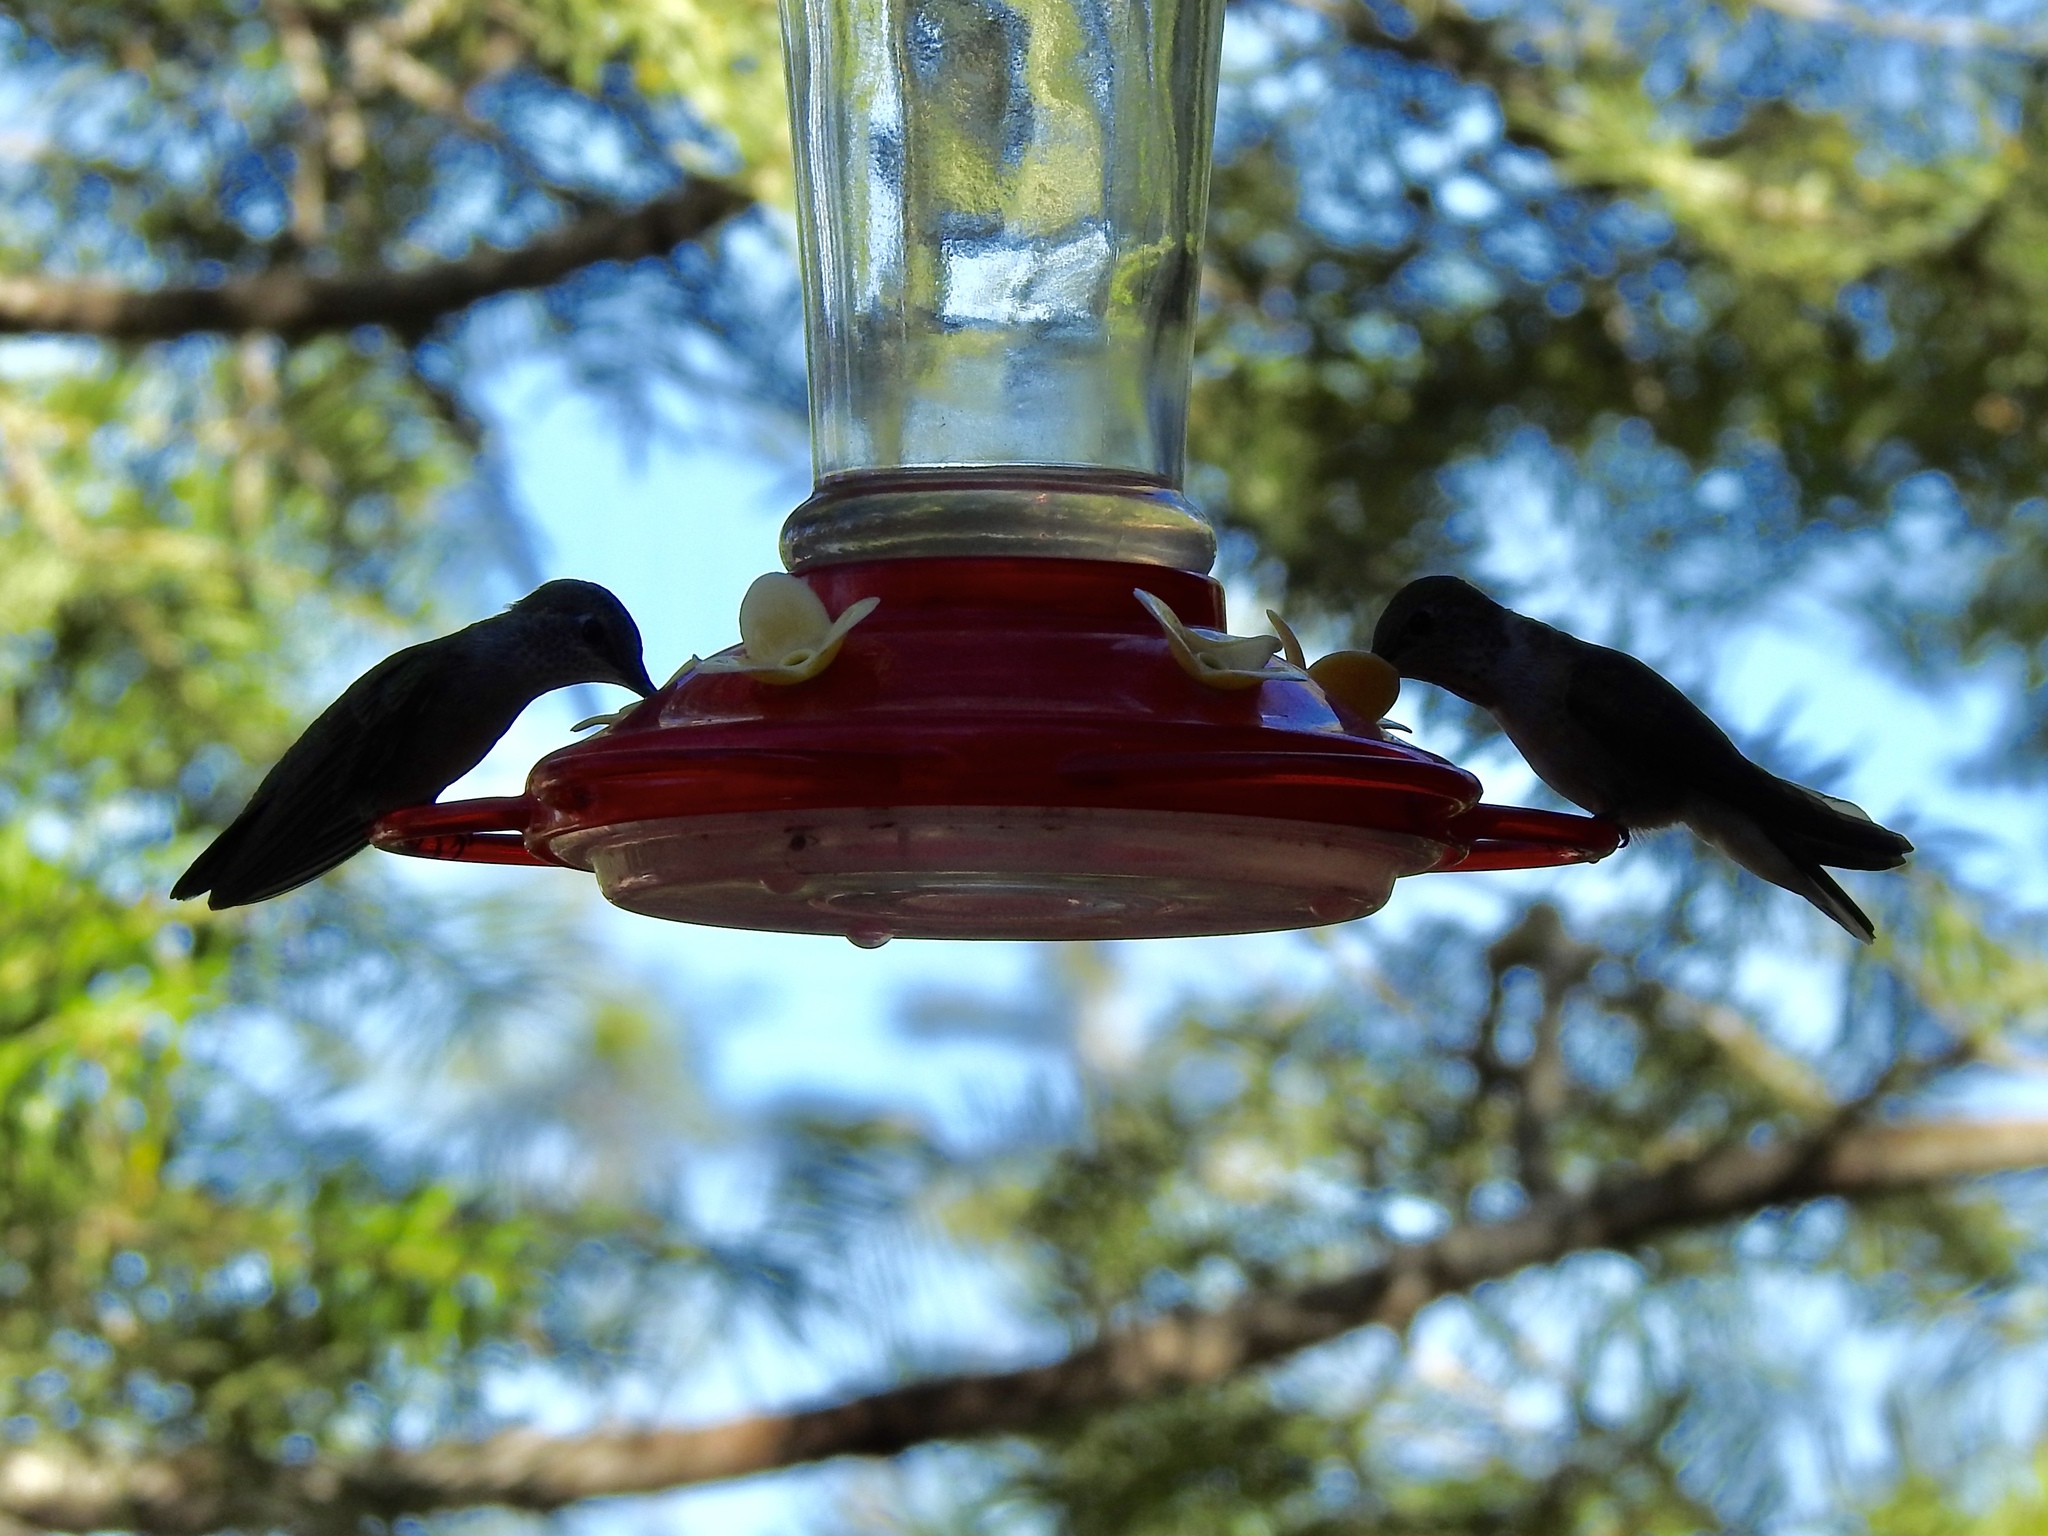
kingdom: Animalia
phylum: Chordata
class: Aves
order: Apodiformes
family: Trochilidae
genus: Selasphorus
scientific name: Selasphorus platycercus
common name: Broad-tailed hummingbird
